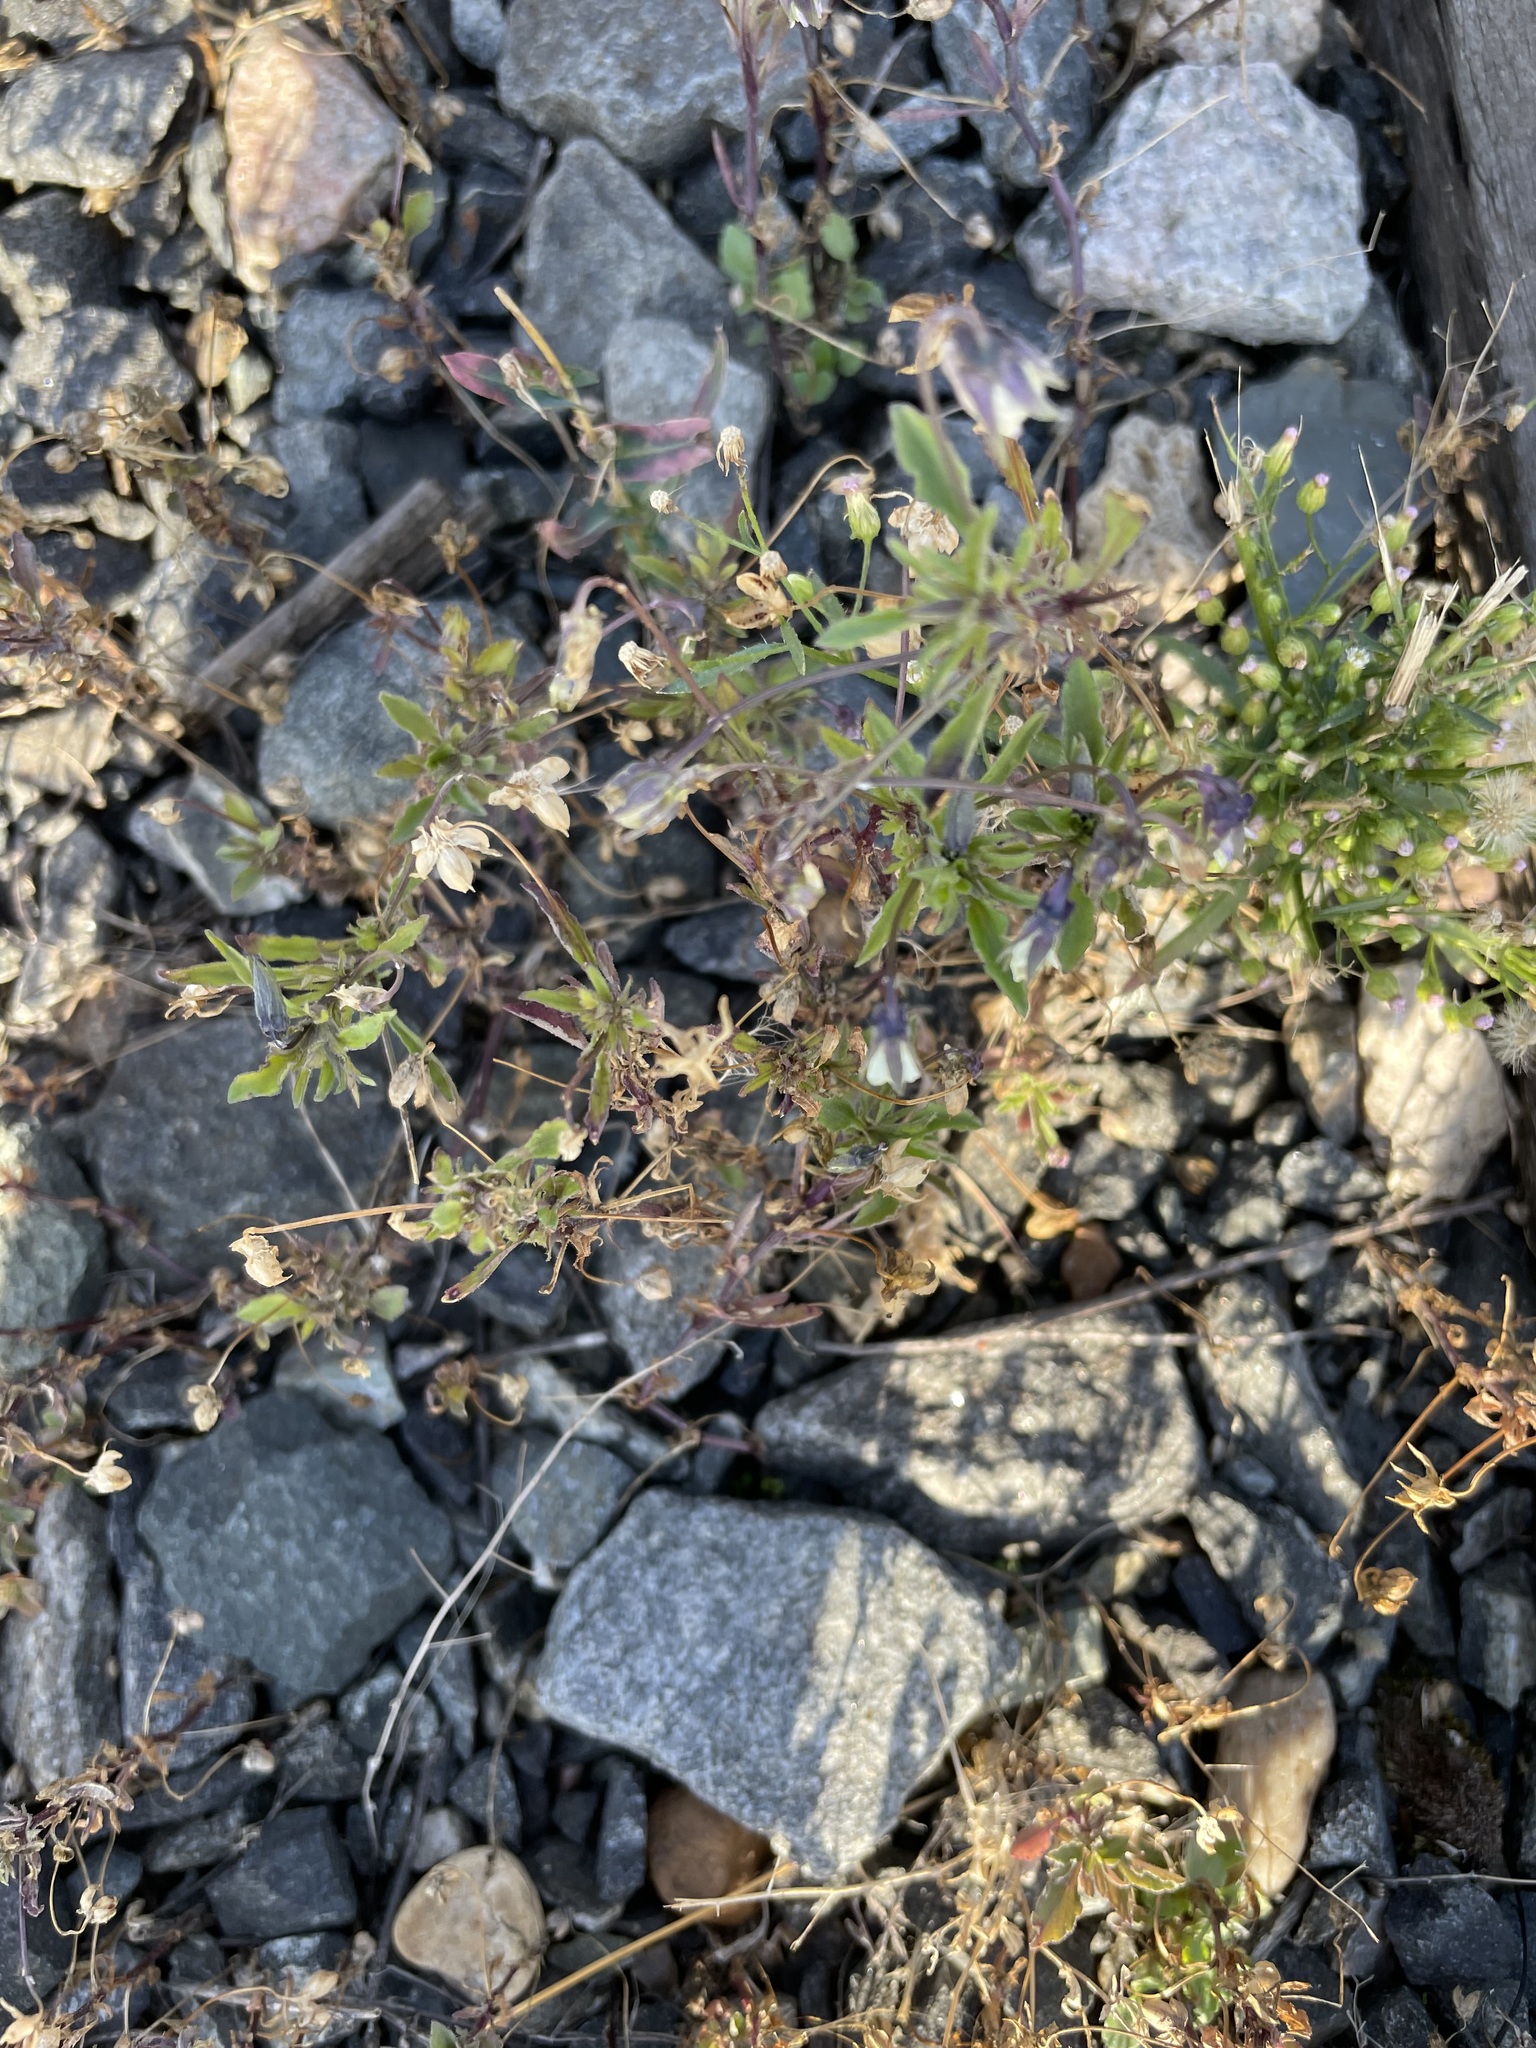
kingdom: Plantae
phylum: Tracheophyta
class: Magnoliopsida
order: Malpighiales
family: Violaceae
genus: Viola
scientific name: Viola arvensis
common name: Field pansy
